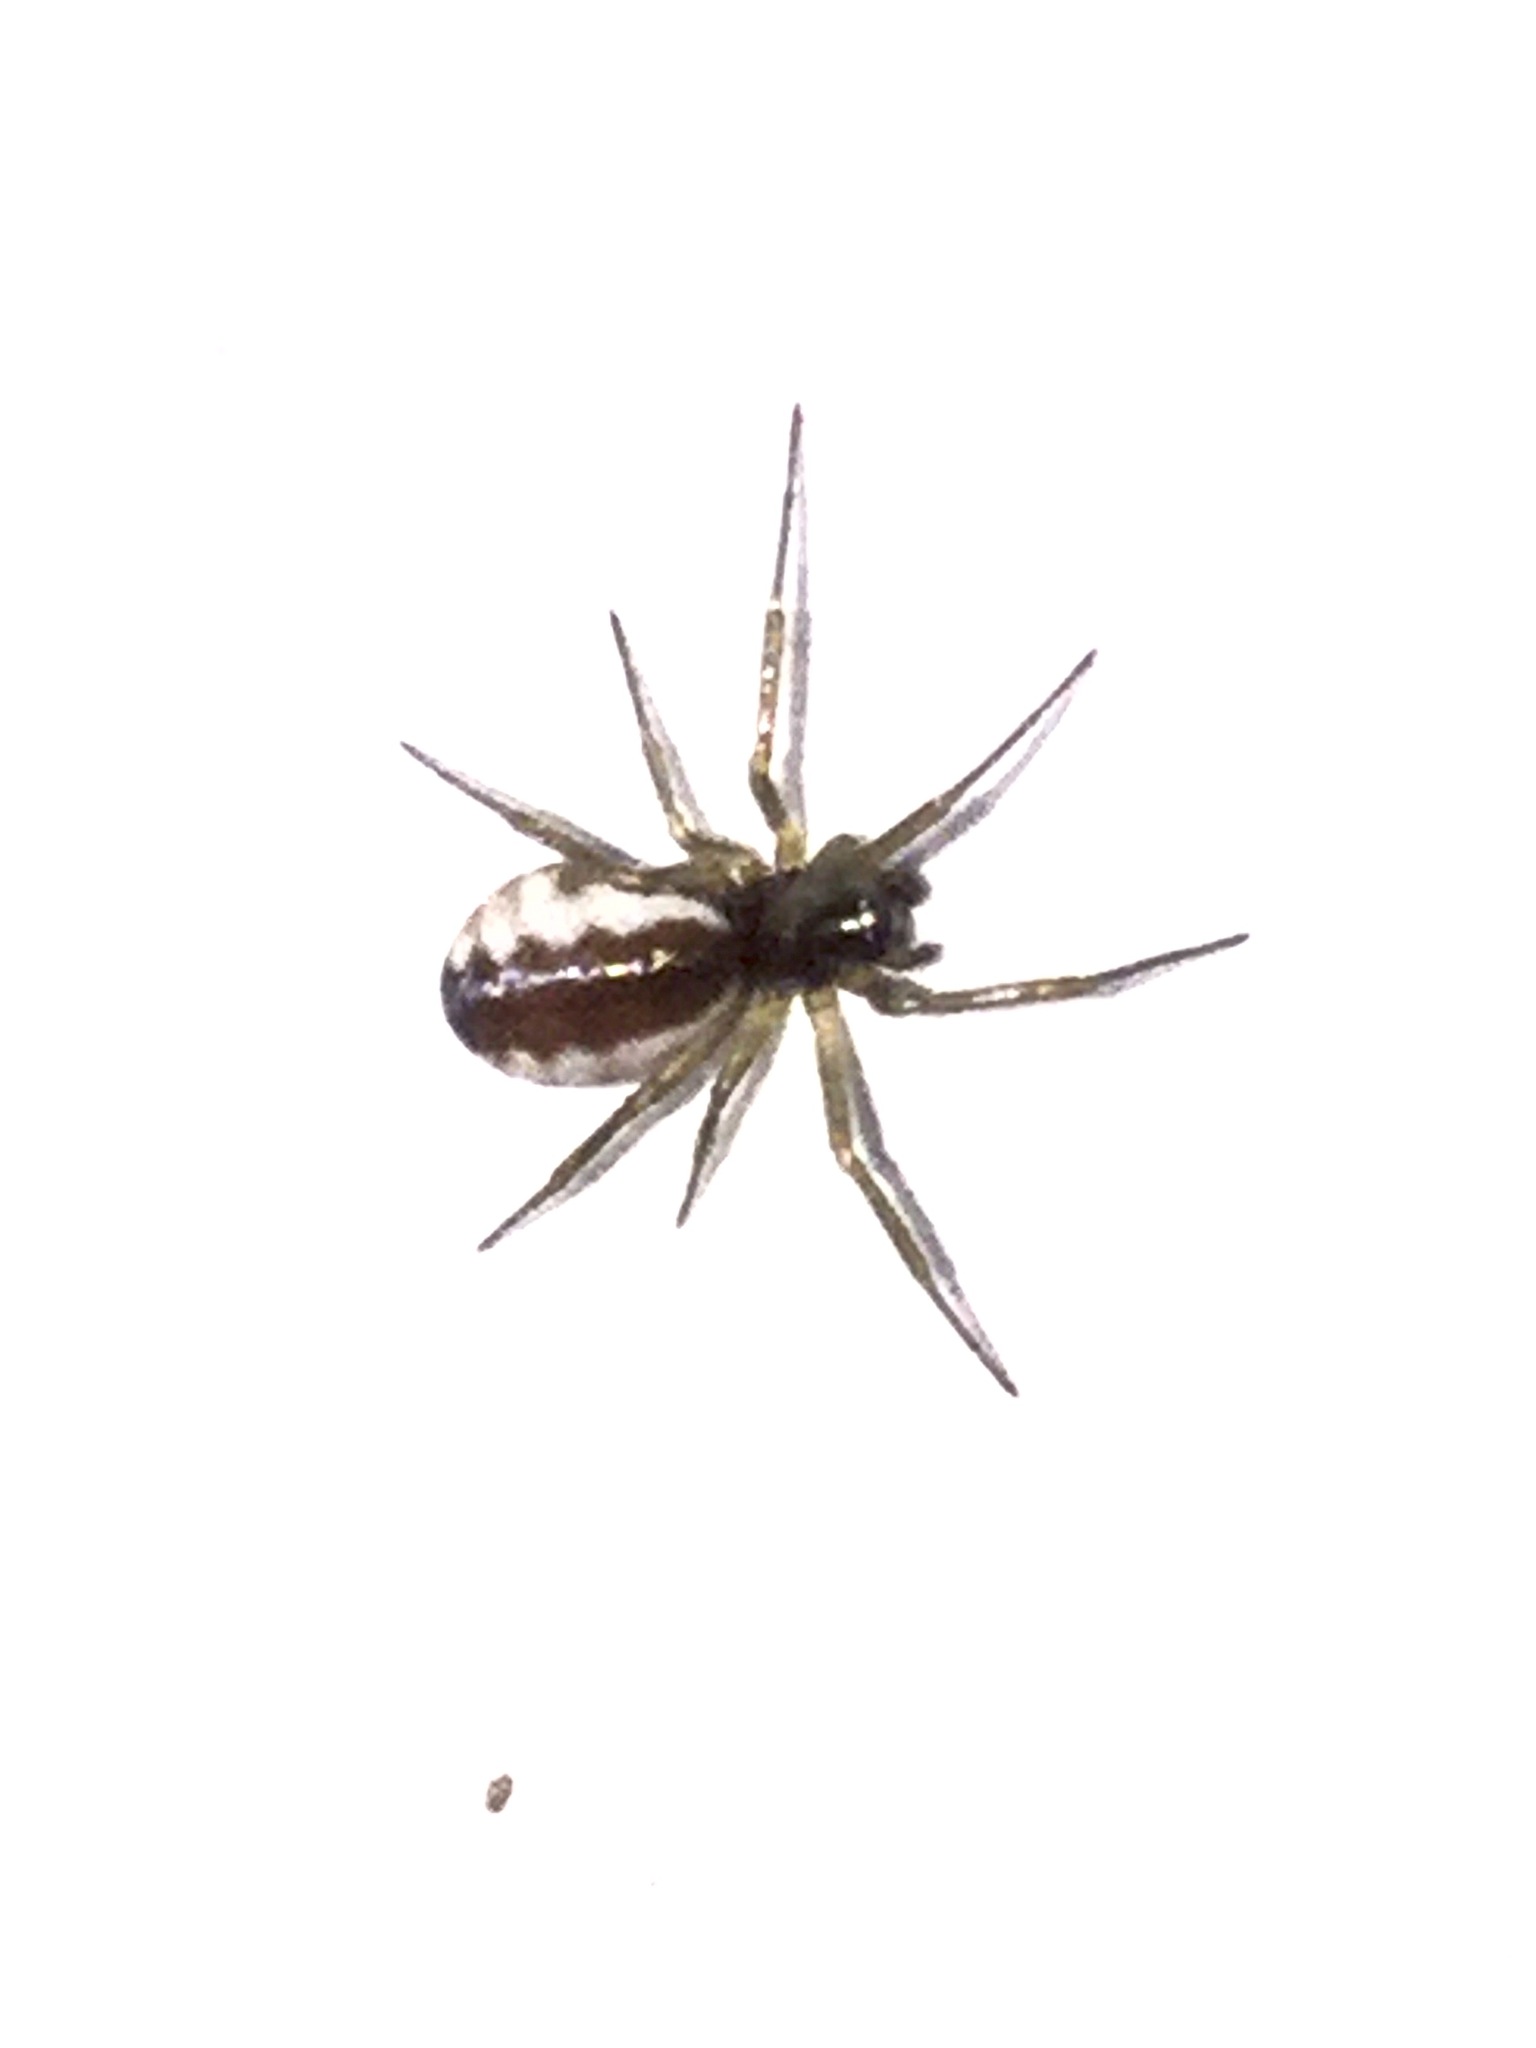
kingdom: Animalia
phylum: Arthropoda
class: Arachnida
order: Araneae
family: Linyphiidae
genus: Frontinella
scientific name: Frontinella pyramitela
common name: Bowl-and-doily spider
